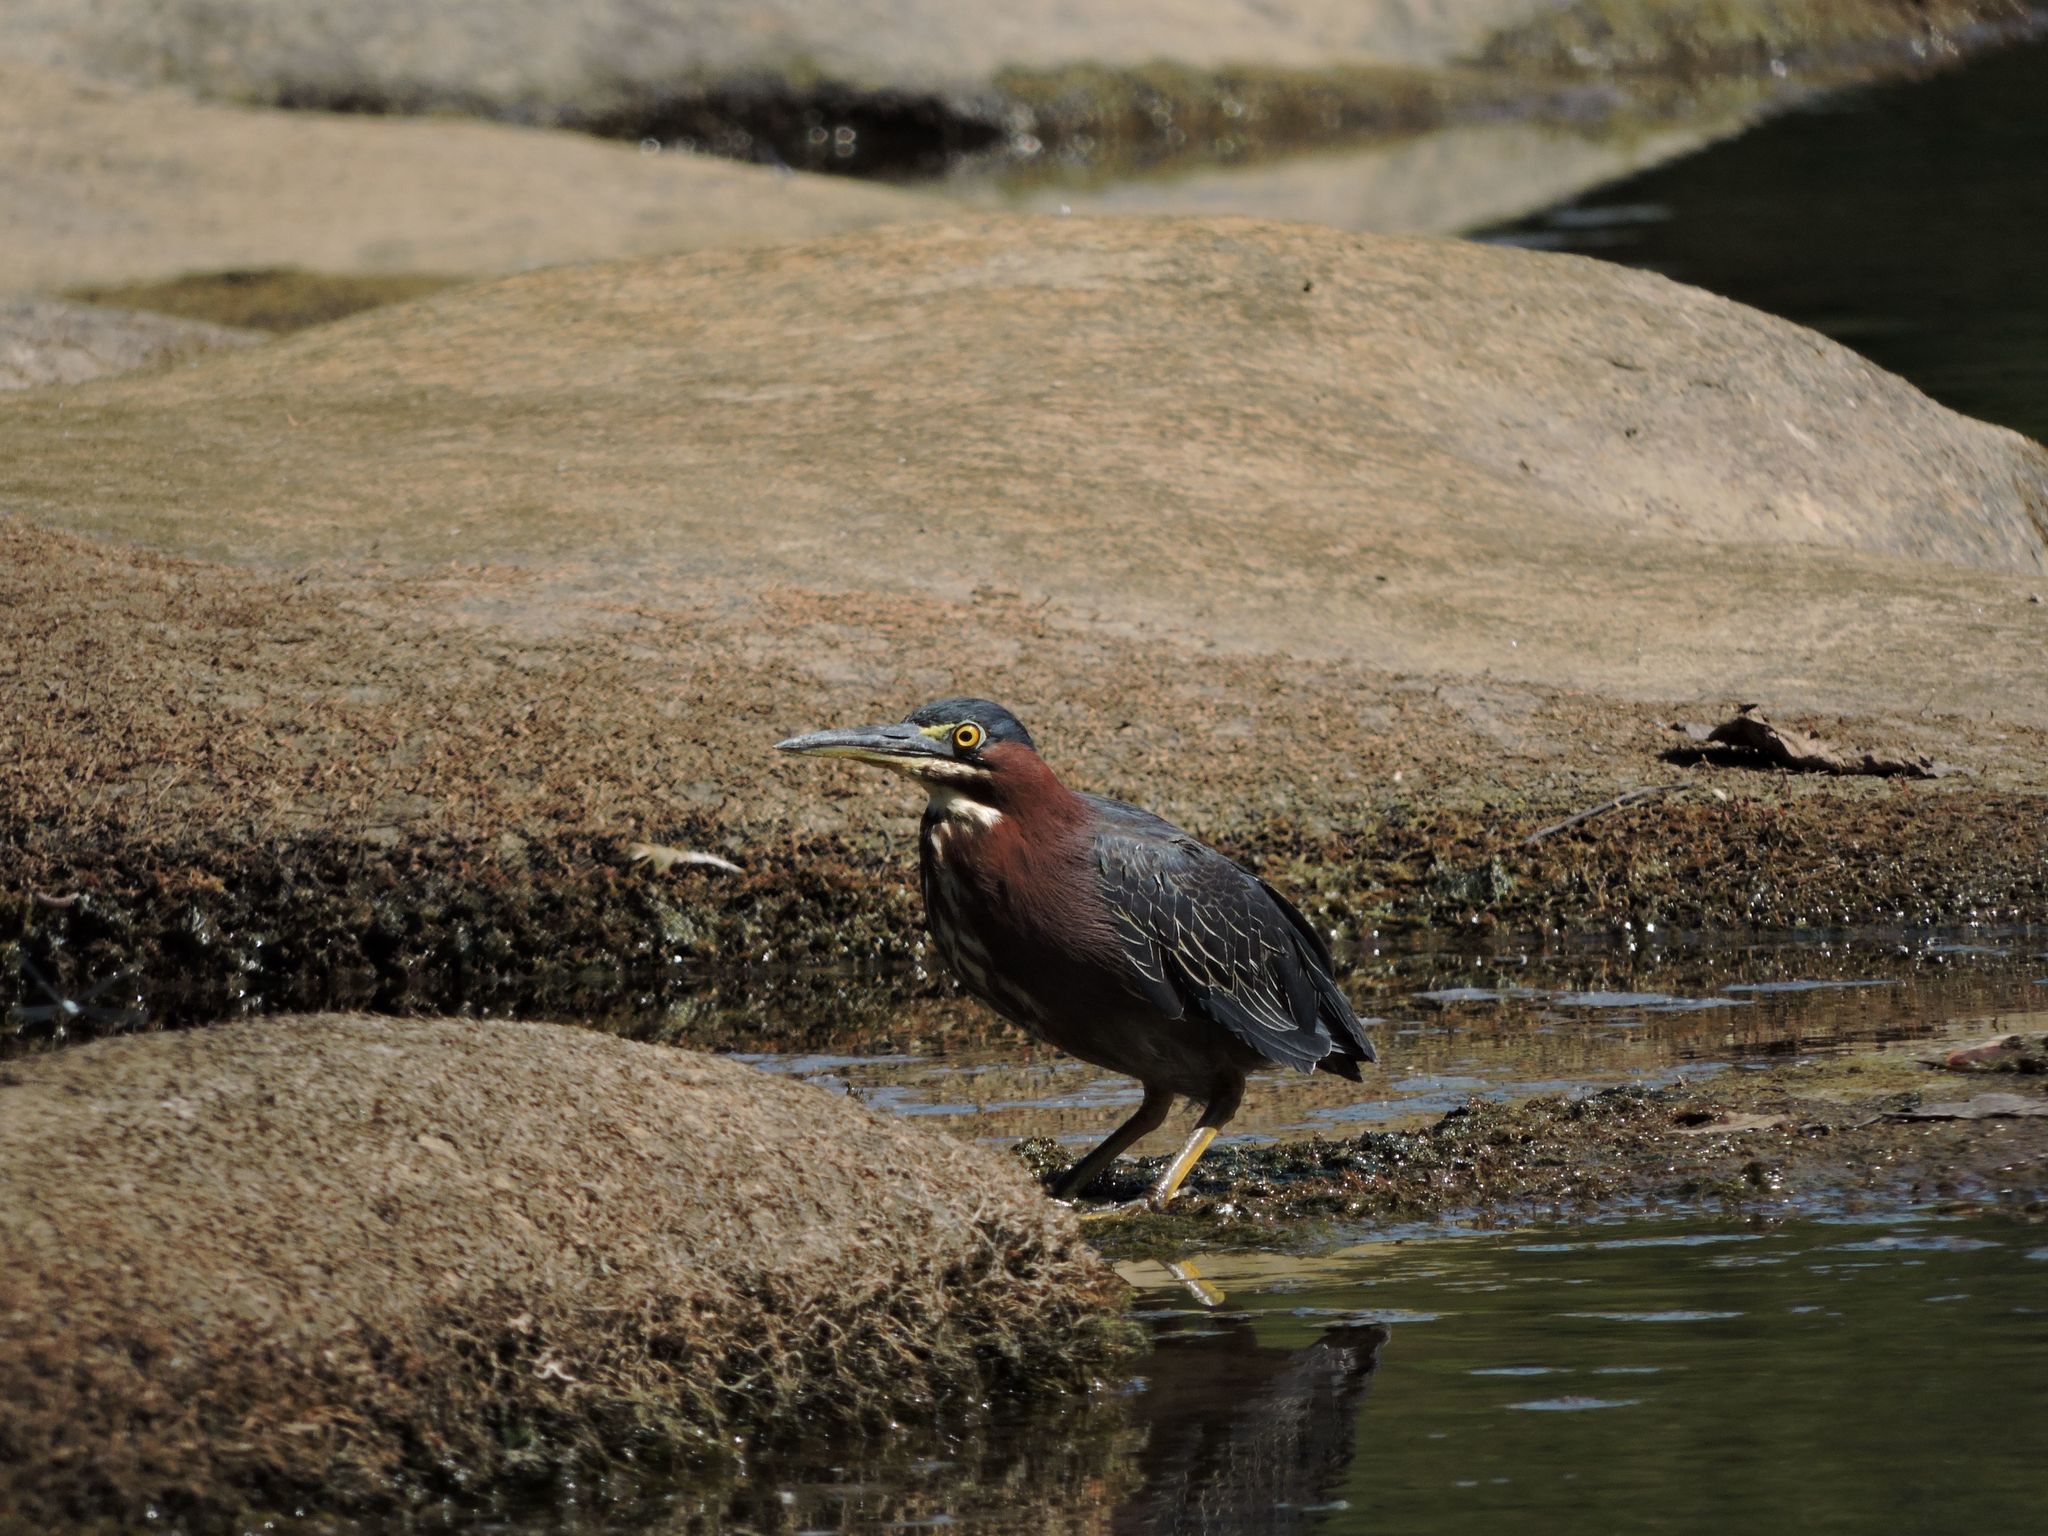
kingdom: Animalia
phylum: Chordata
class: Aves
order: Pelecaniformes
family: Ardeidae
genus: Butorides
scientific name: Butorides virescens
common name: Green heron
